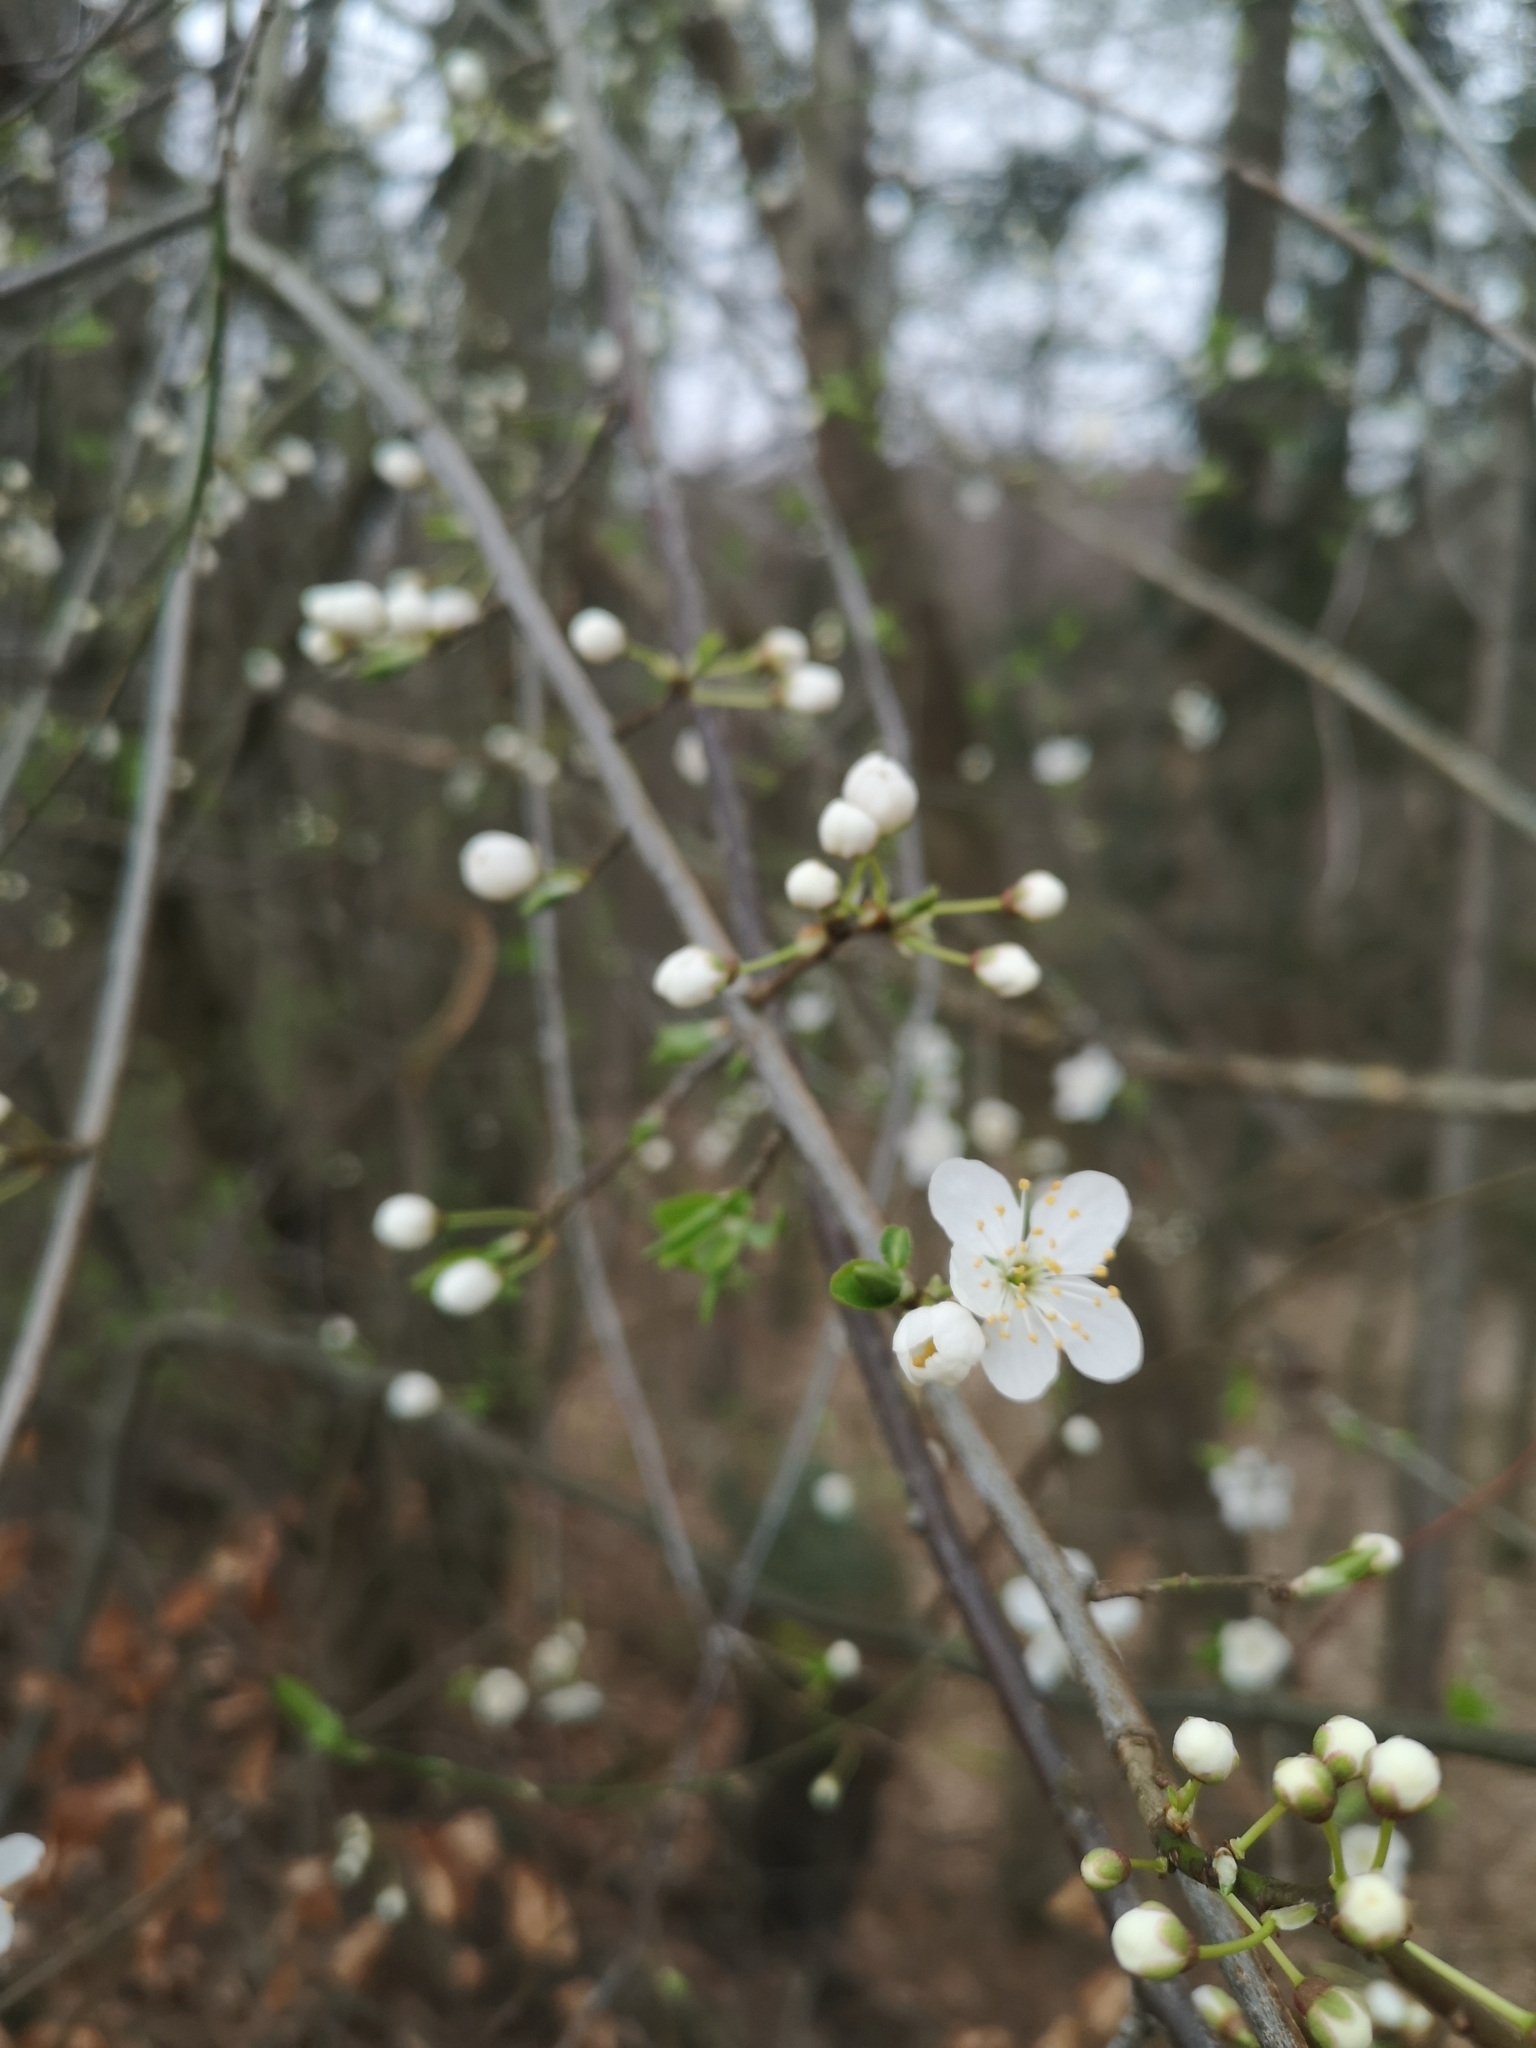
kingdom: Plantae
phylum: Tracheophyta
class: Magnoliopsida
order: Rosales
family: Rosaceae
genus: Prunus
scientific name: Prunus cerasifera
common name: Cherry plum
